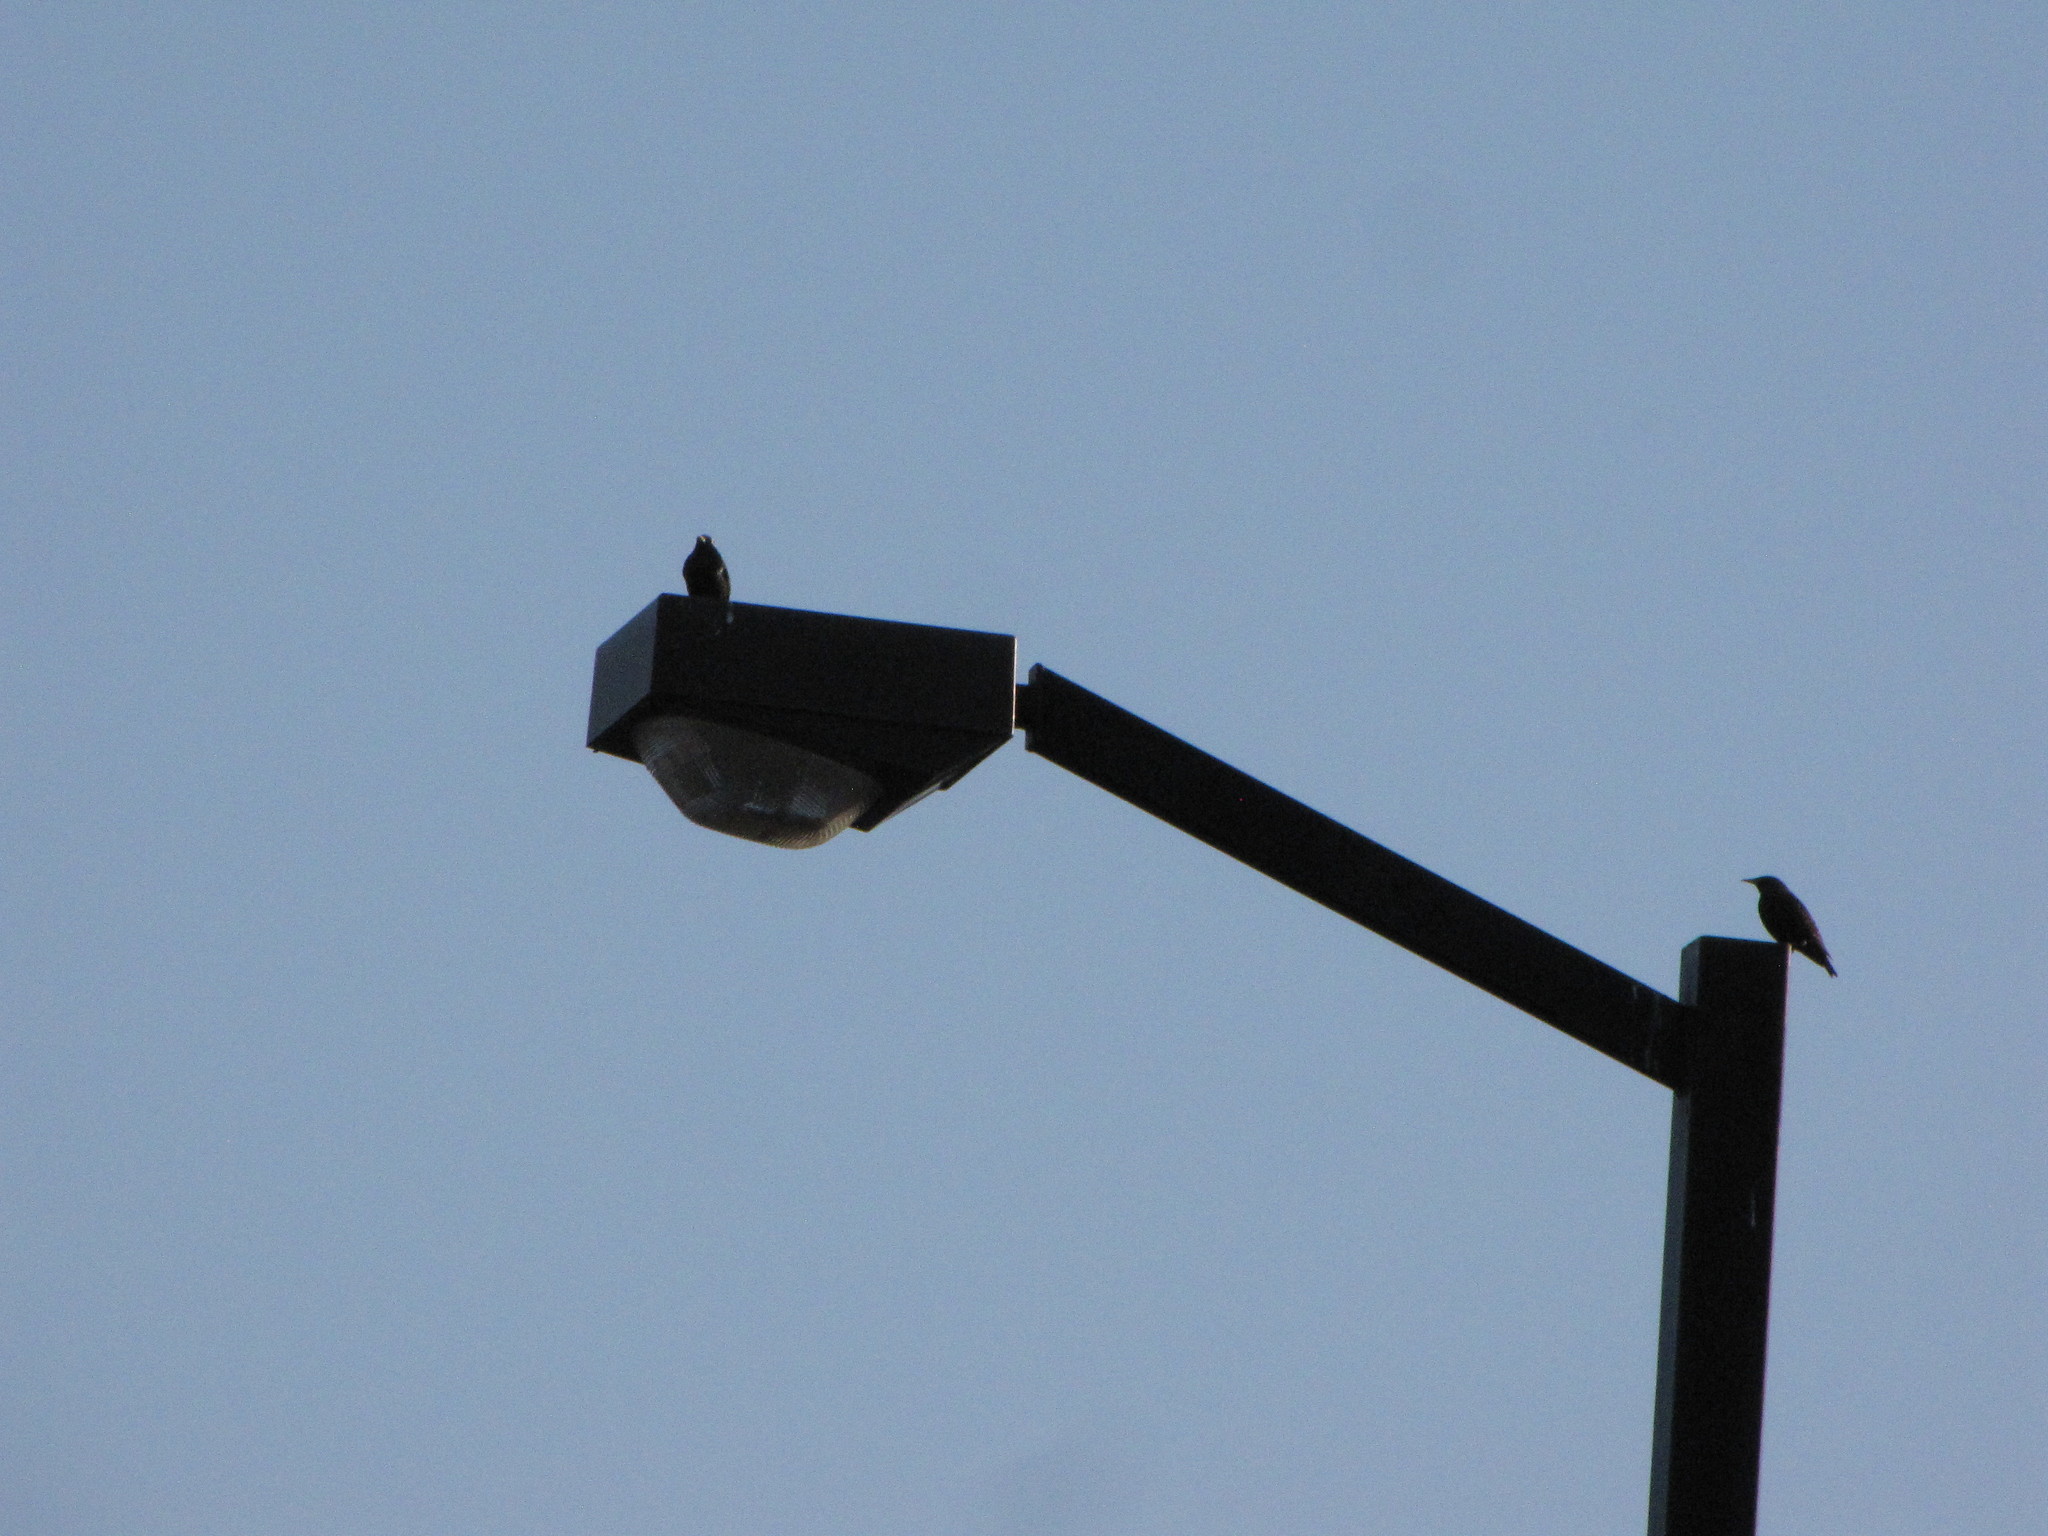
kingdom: Animalia
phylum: Chordata
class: Aves
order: Passeriformes
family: Sturnidae
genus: Sturnus
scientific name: Sturnus vulgaris
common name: Common starling
